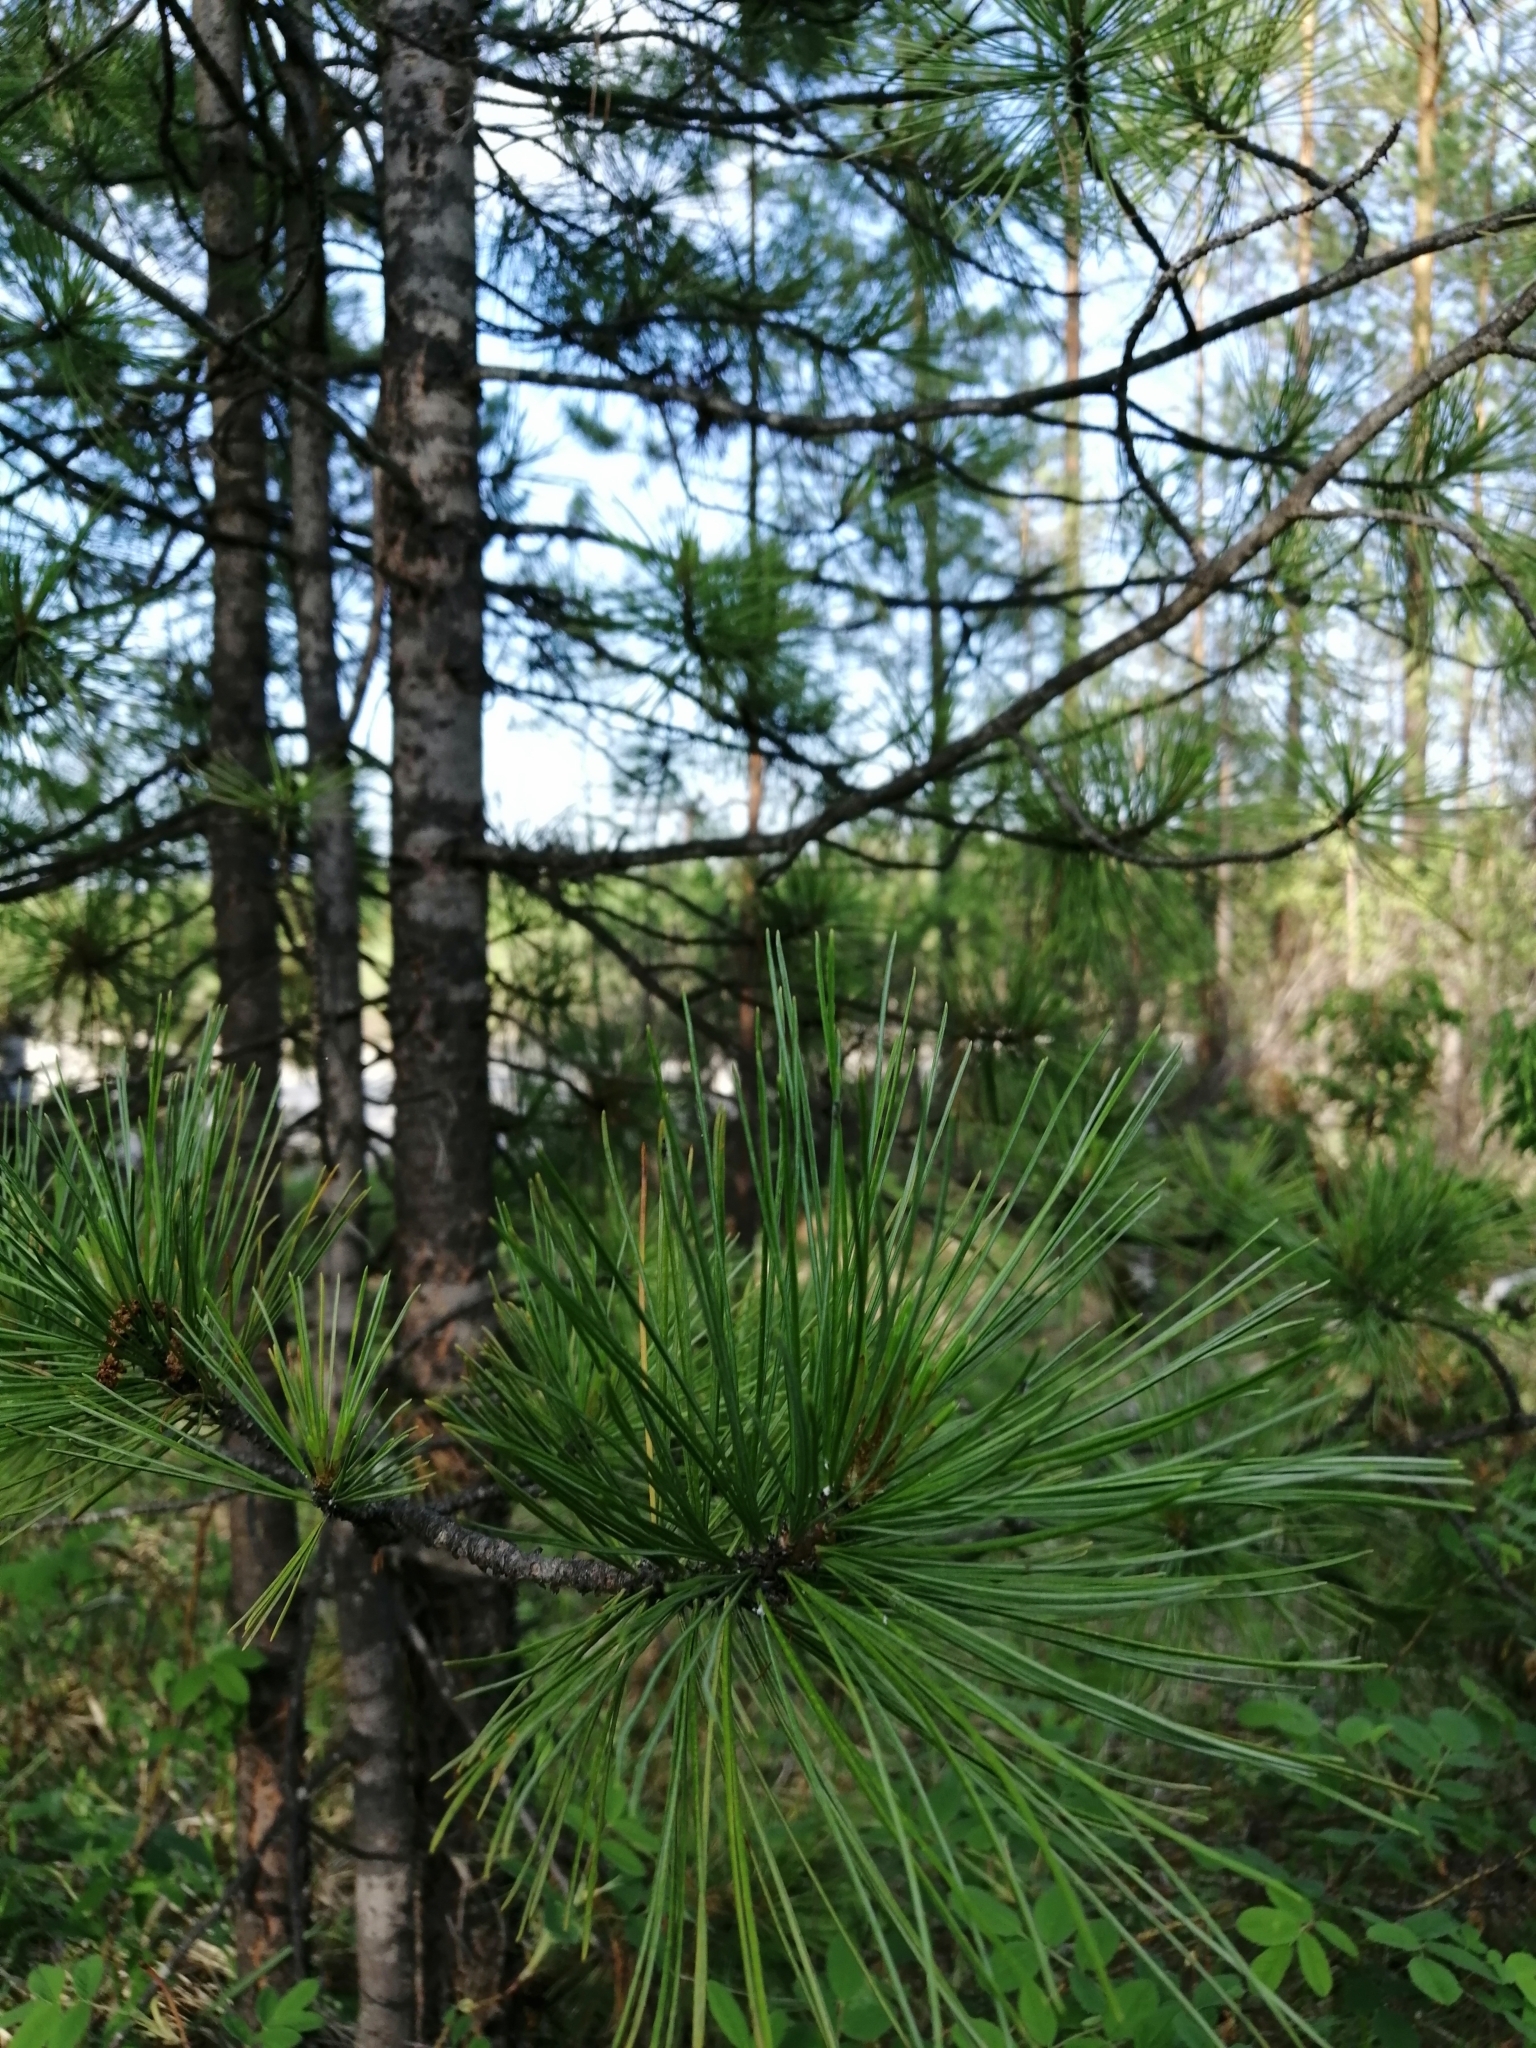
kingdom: Plantae
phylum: Tracheophyta
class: Pinopsida
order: Pinales
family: Pinaceae
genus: Pinus
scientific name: Pinus sibirica
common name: Siberian pine
